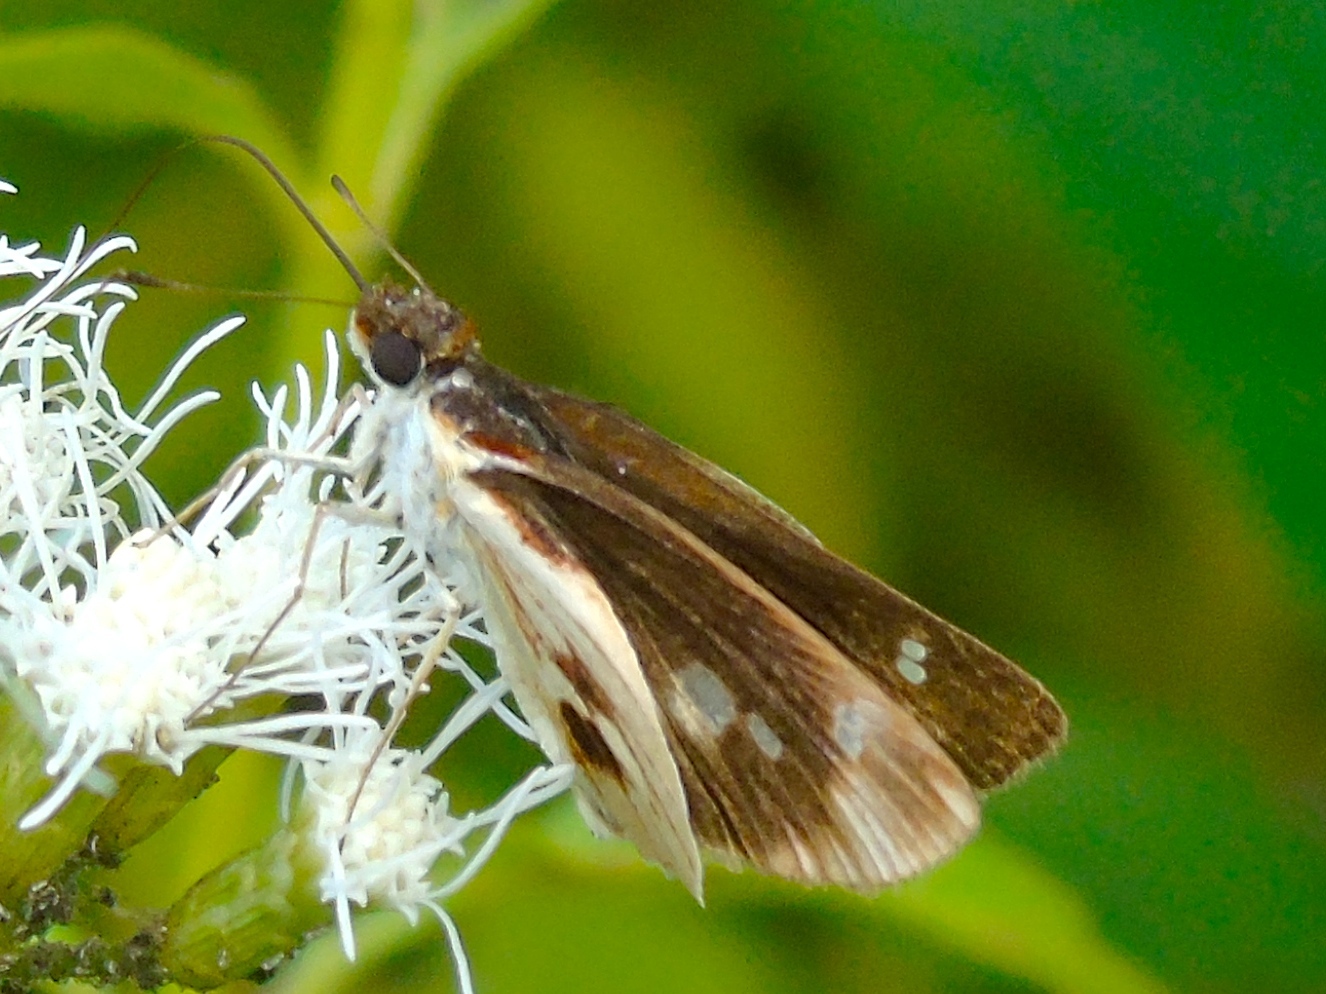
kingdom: Animalia
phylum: Arthropoda
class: Insecta
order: Lepidoptera
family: Hesperiidae
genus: Troyus
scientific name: Troyus fantasos
